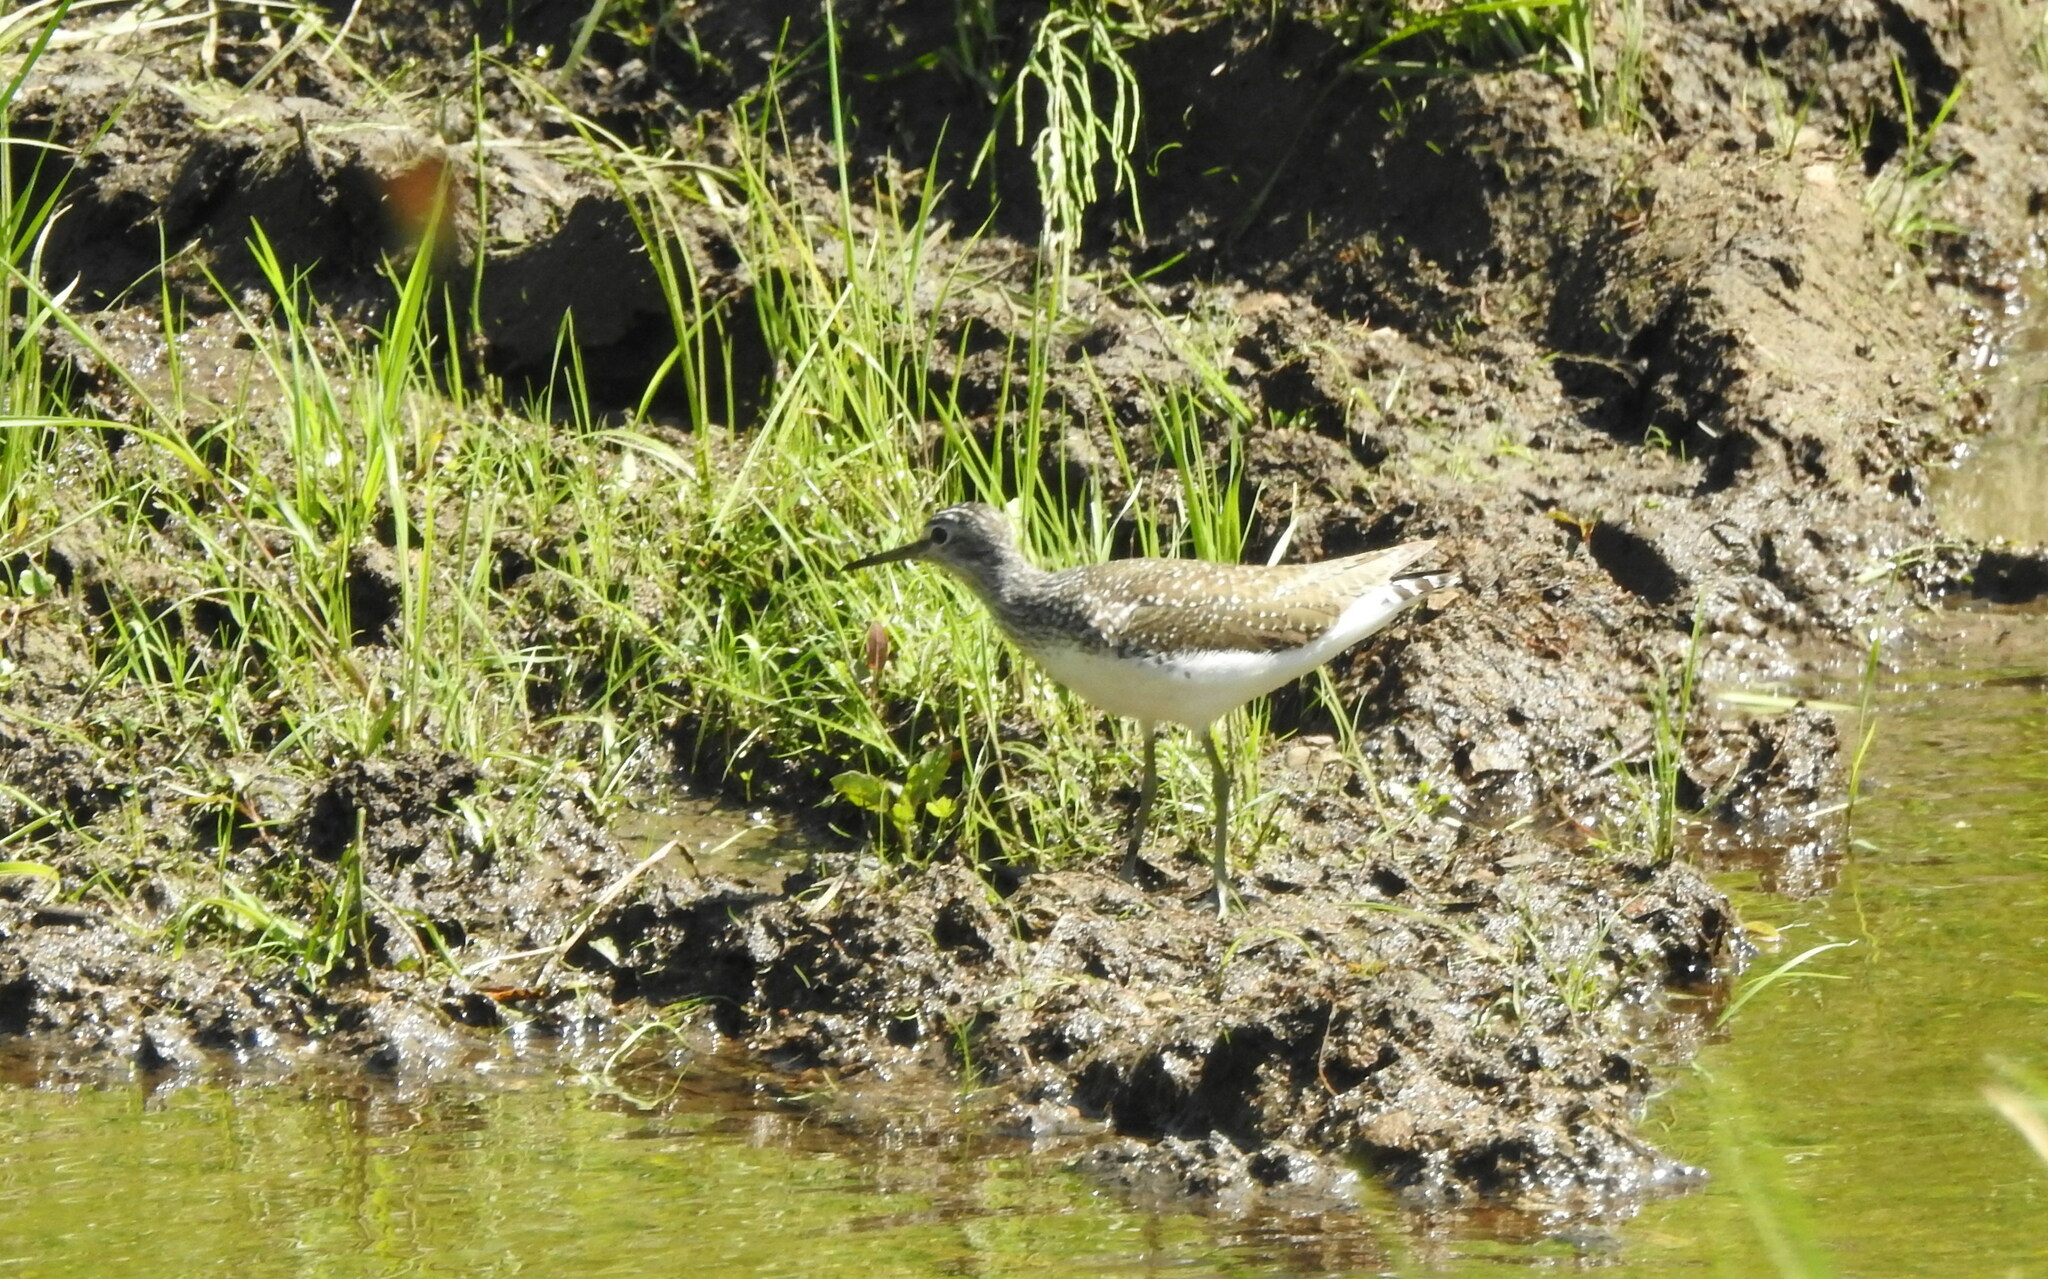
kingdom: Animalia
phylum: Chordata
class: Aves
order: Charadriiformes
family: Scolopacidae
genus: Tringa
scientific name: Tringa ochropus
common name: Green sandpiper
